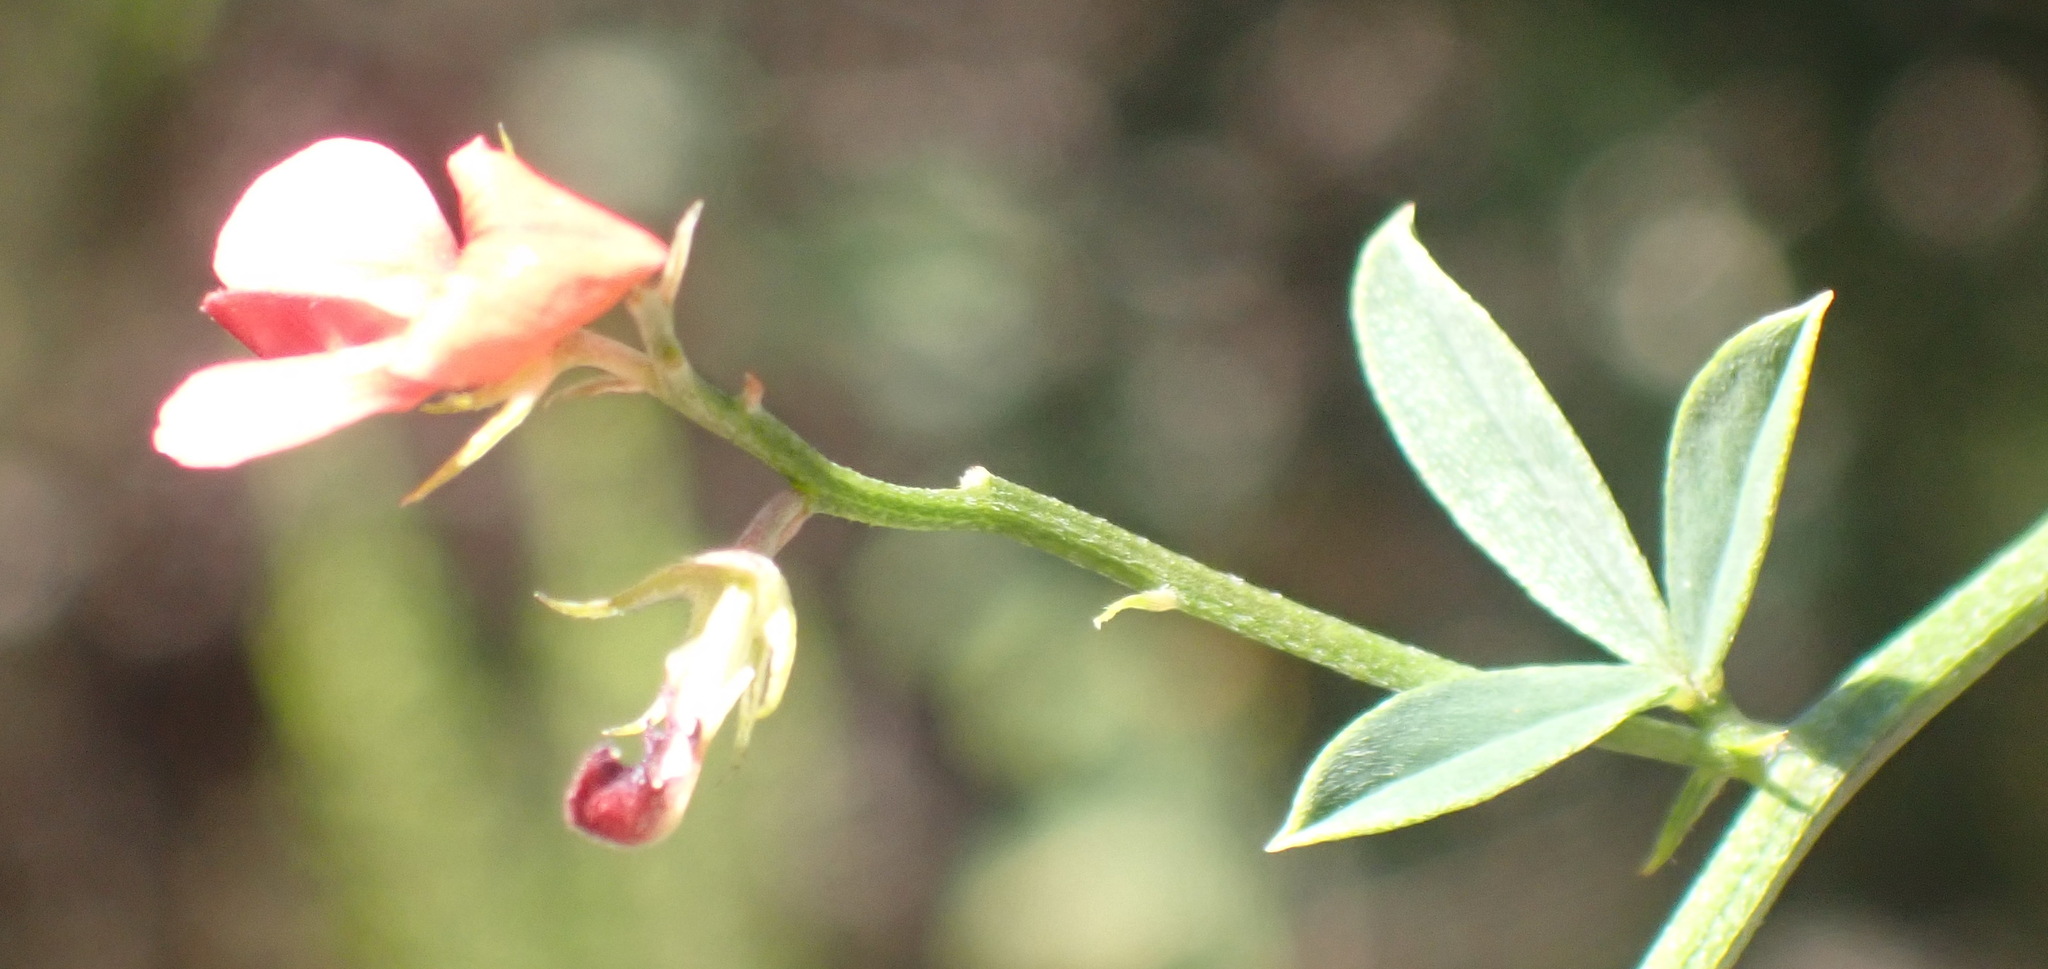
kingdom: Plantae
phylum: Tracheophyta
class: Magnoliopsida
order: Fabales
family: Fabaceae
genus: Indigofera
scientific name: Indigofera priorii
